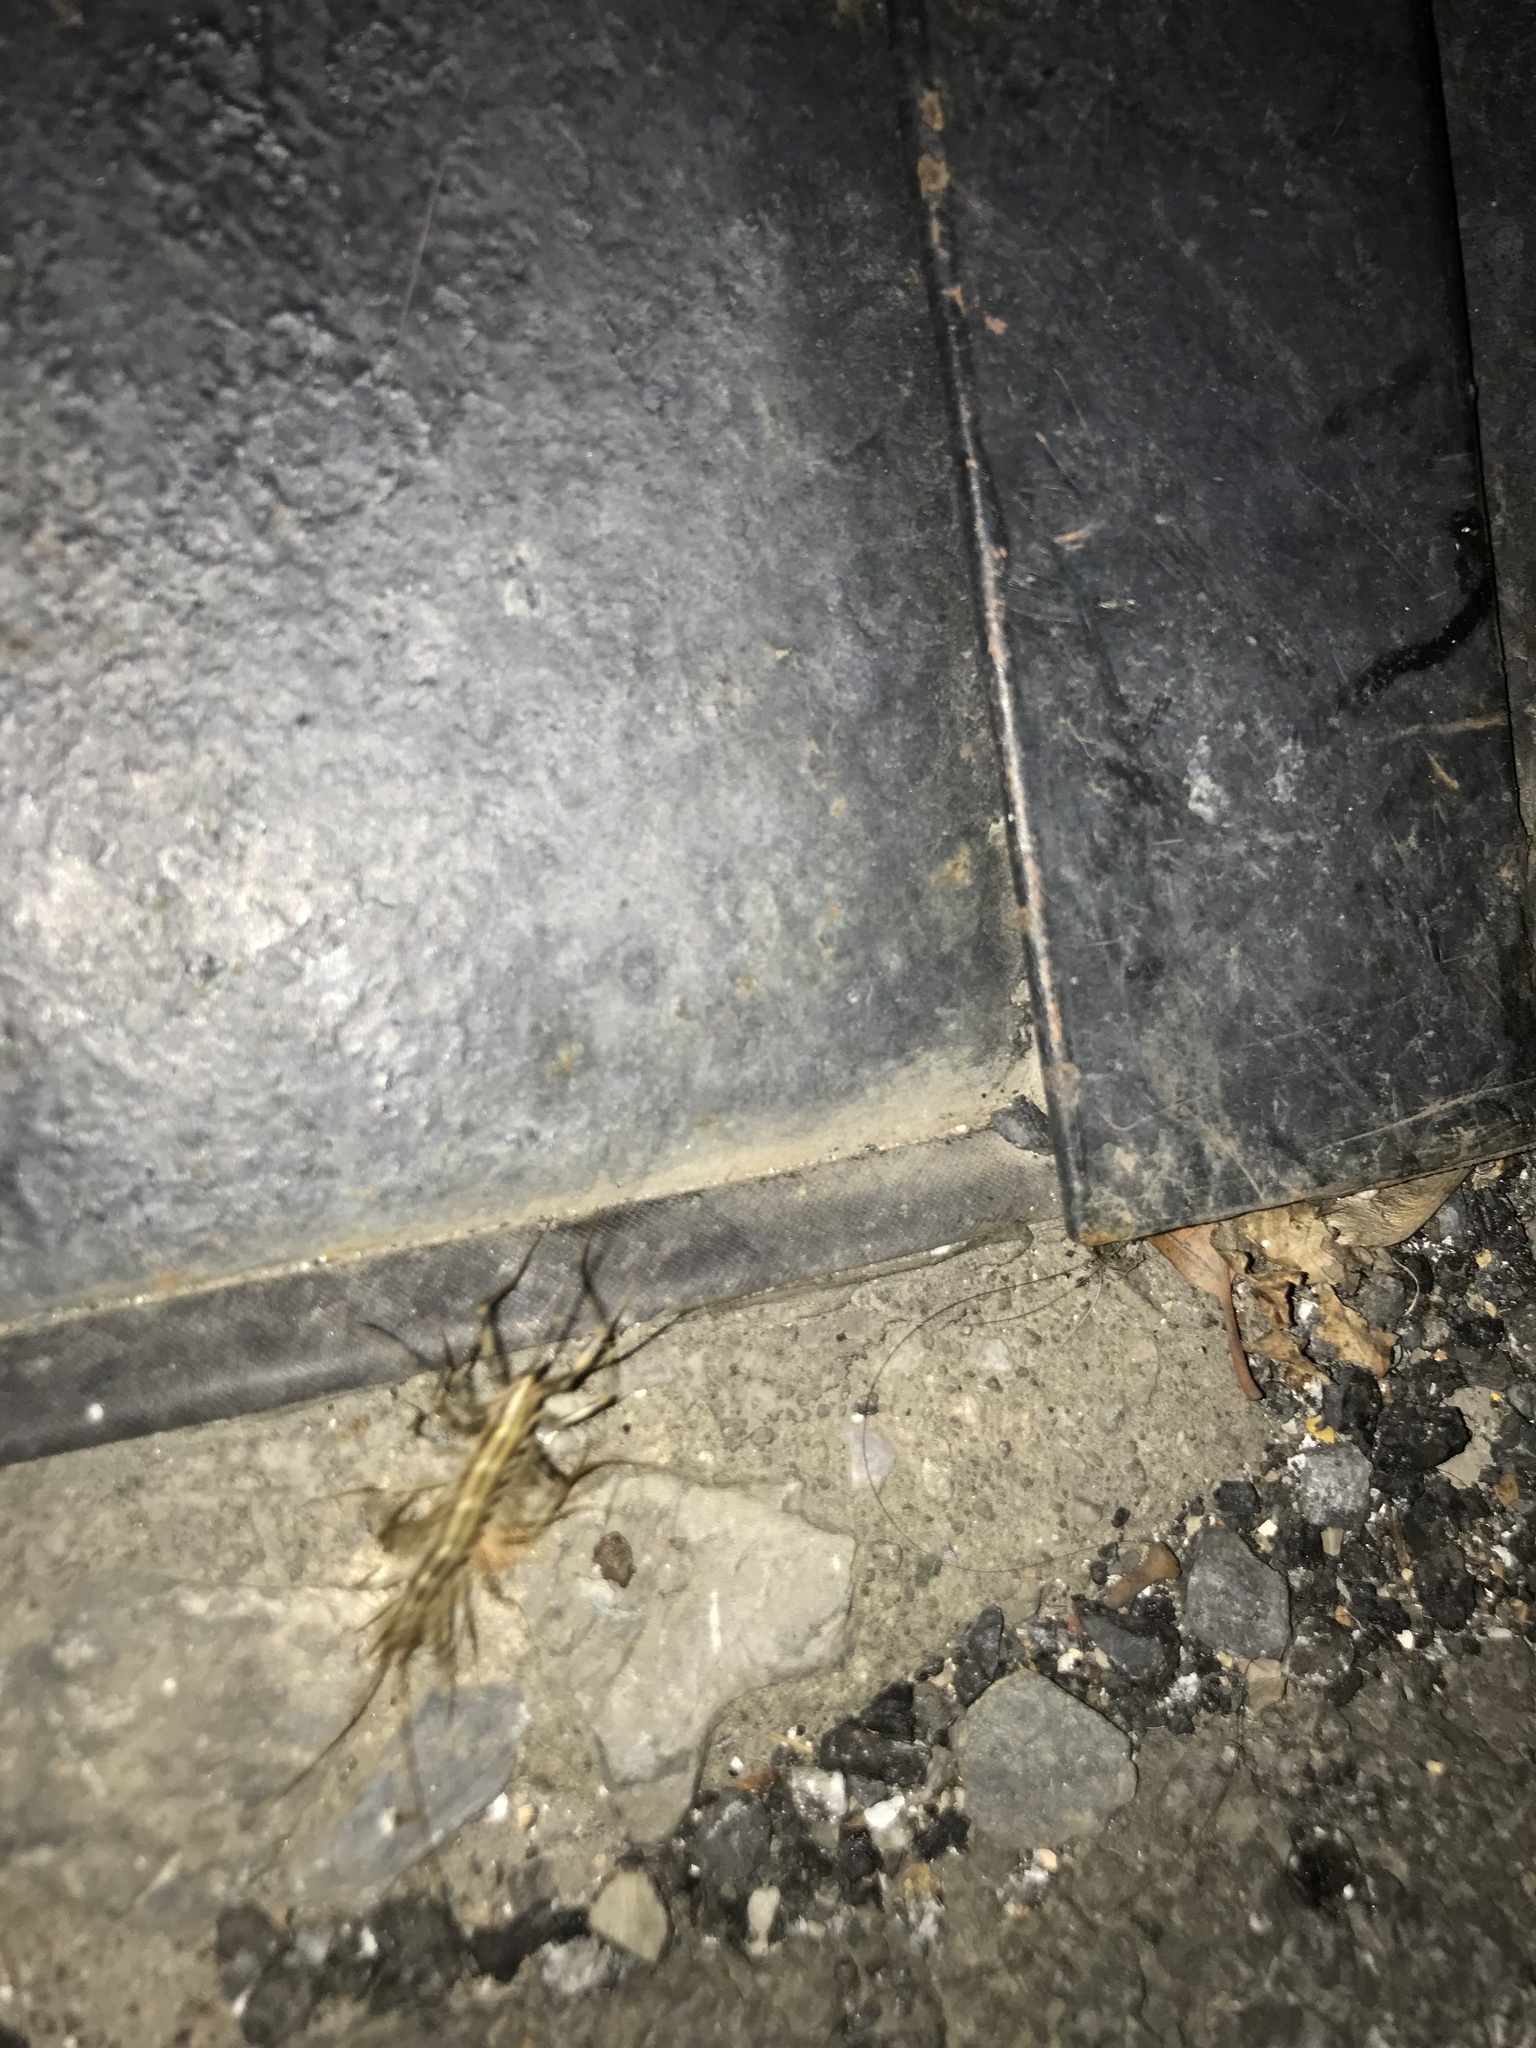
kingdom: Animalia
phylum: Arthropoda
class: Chilopoda
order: Scutigeromorpha
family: Scutigeridae
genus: Scutigera
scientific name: Scutigera coleoptrata
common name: House centipede
